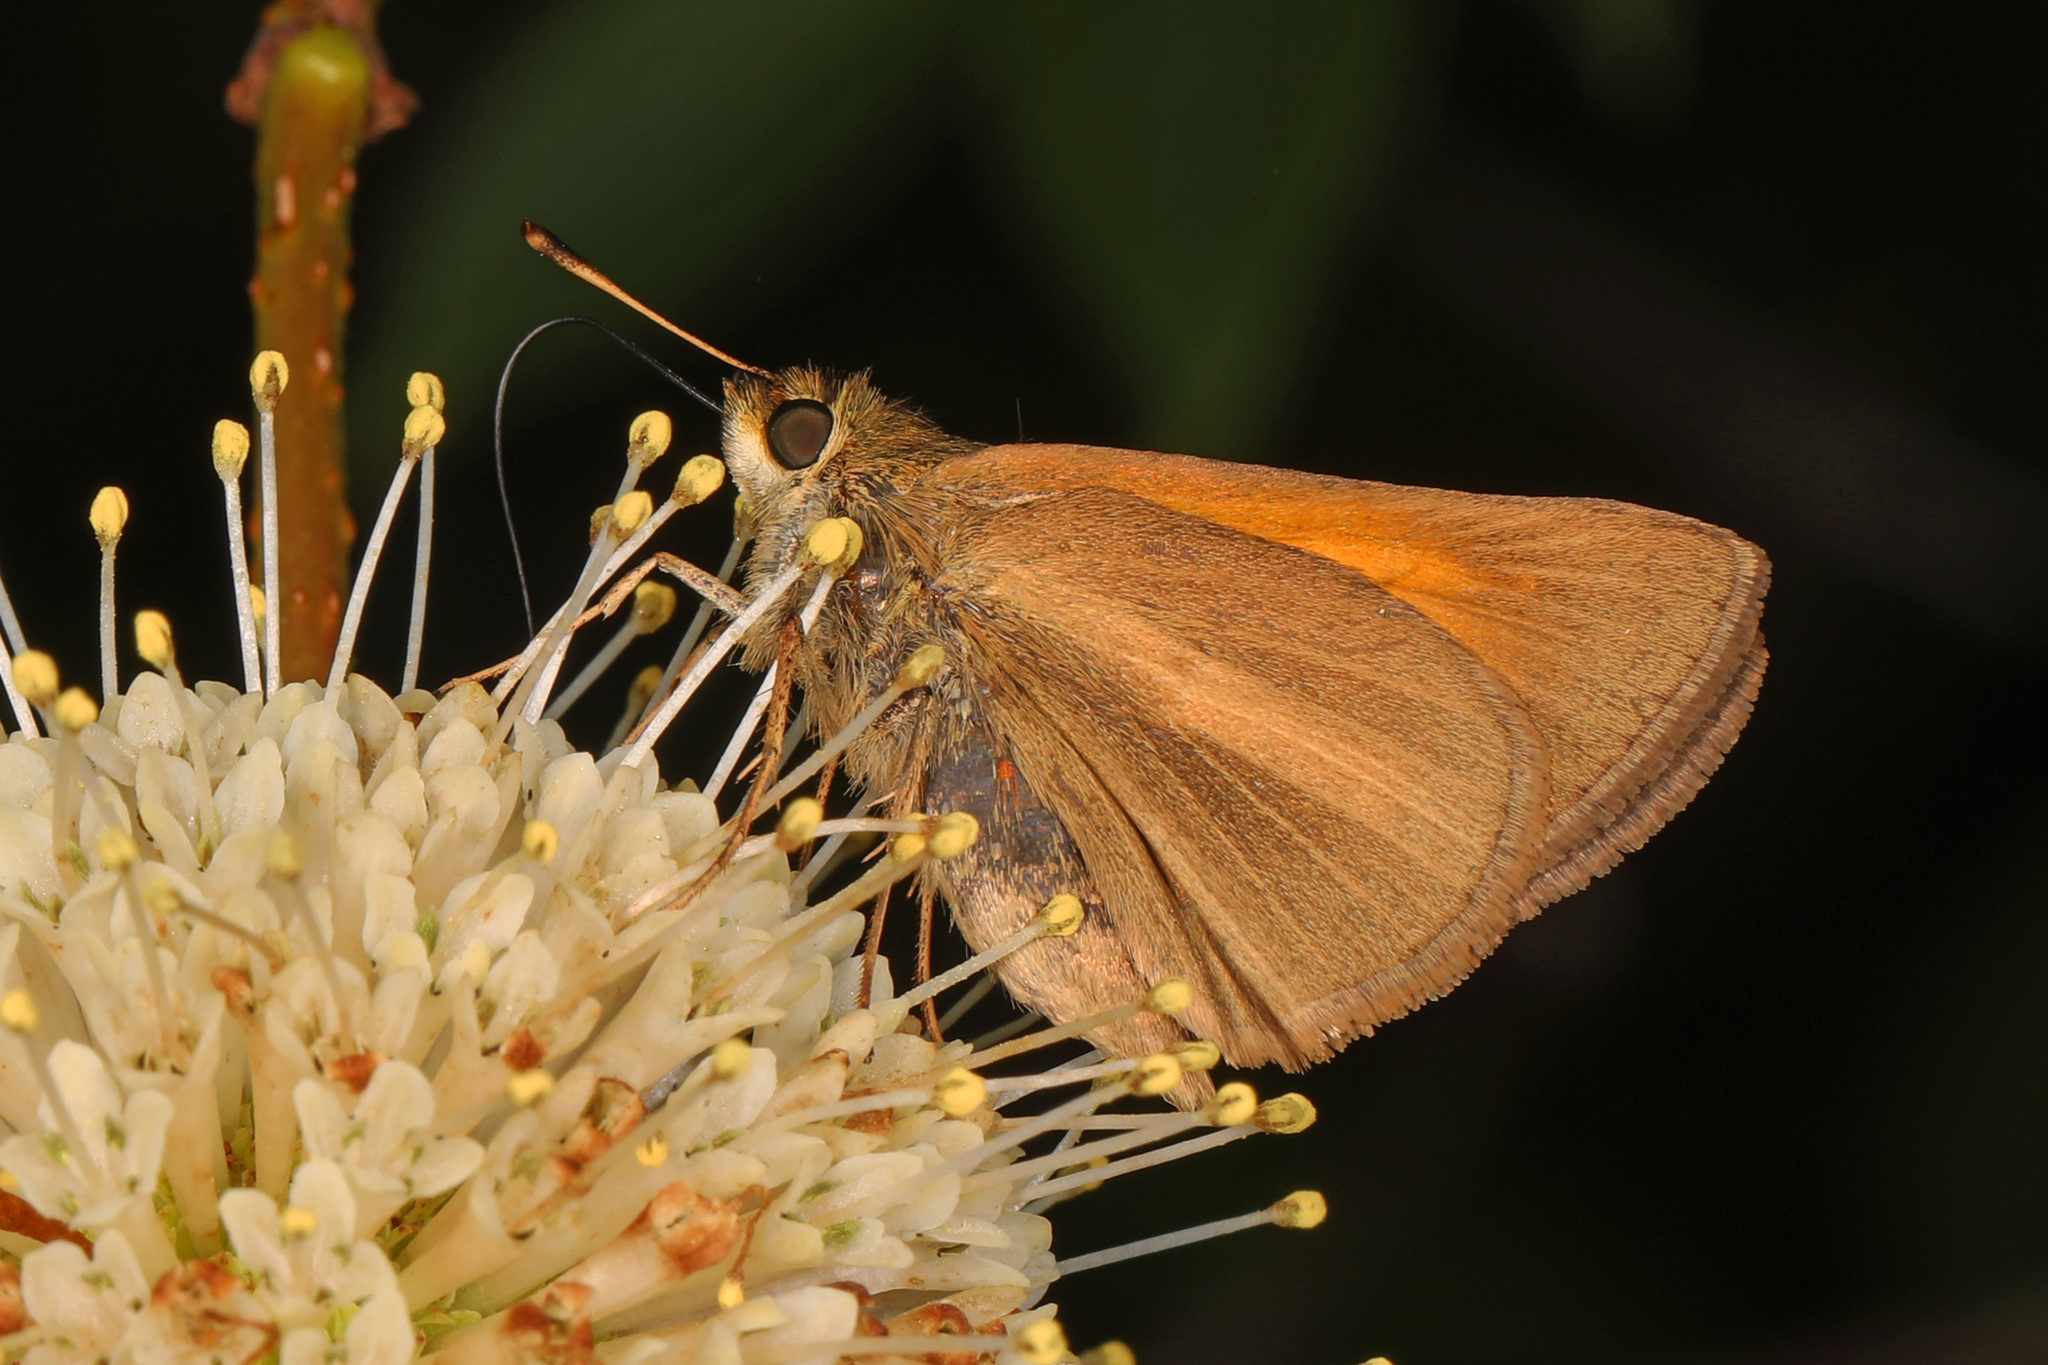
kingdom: Animalia
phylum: Arthropoda
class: Insecta
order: Lepidoptera
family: Hesperiidae
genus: Poanes
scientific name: Poanes aaroni
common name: Aaron's skipper
